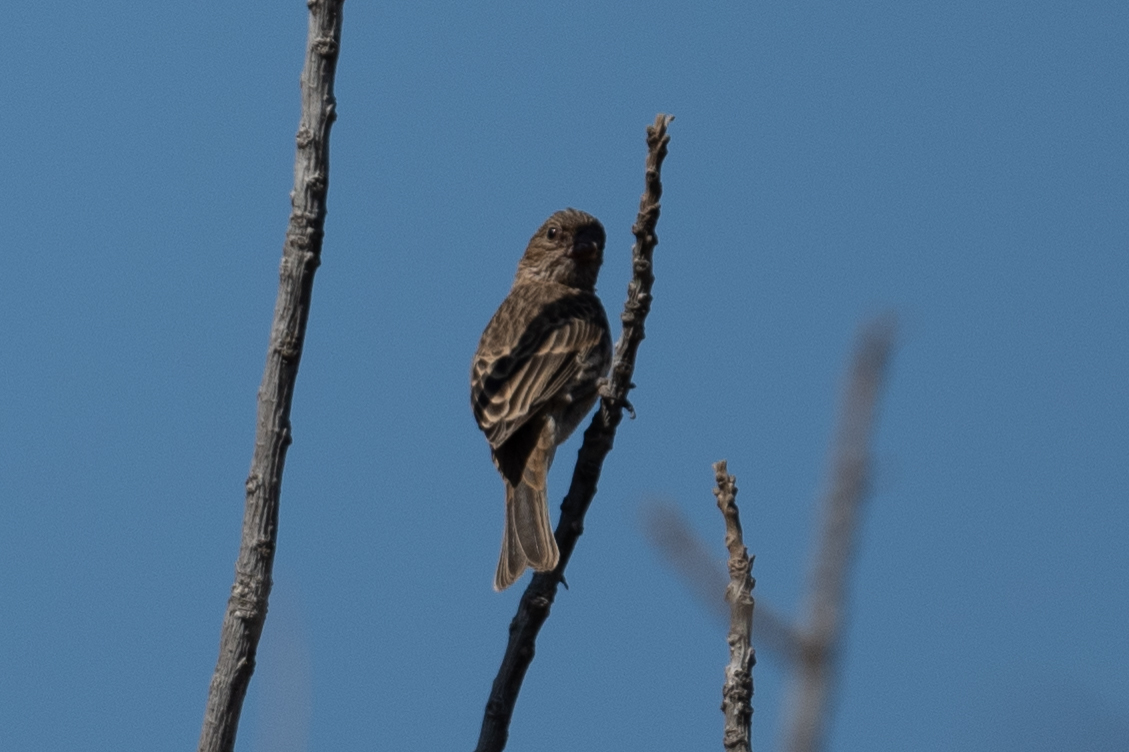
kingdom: Animalia
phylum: Chordata
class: Aves
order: Passeriformes
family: Fringillidae
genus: Haemorhous
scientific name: Haemorhous mexicanus
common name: House finch
